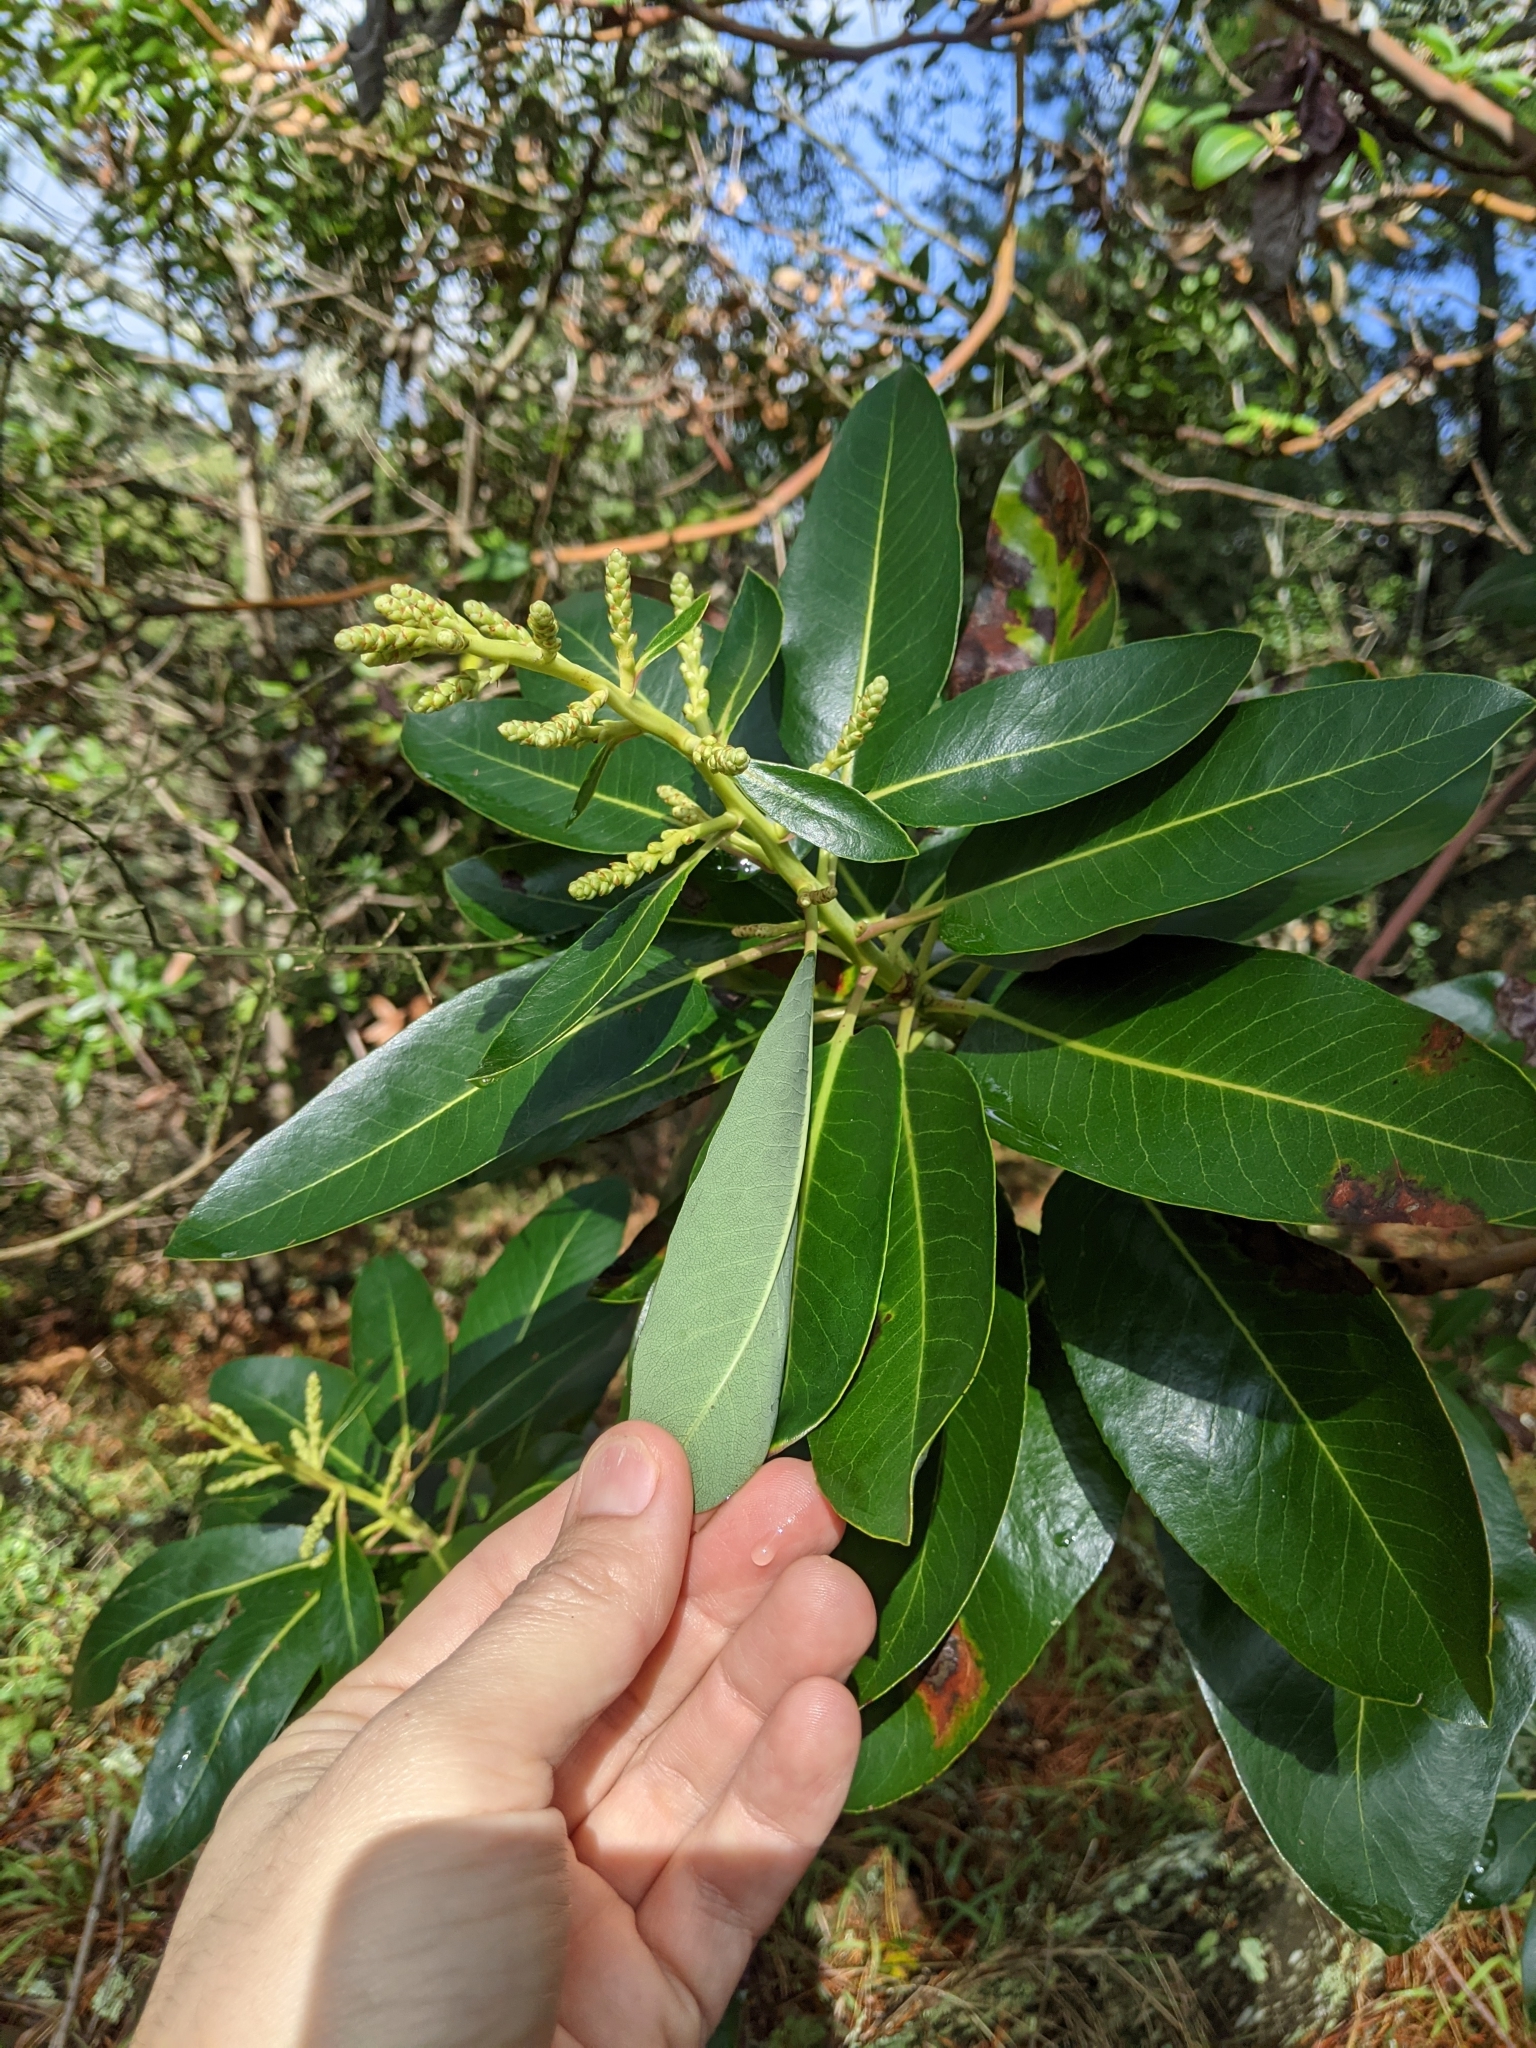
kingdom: Plantae
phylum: Tracheophyta
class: Magnoliopsida
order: Ericales
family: Ericaceae
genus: Arbutus
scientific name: Arbutus menziesii
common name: Pacific madrone
